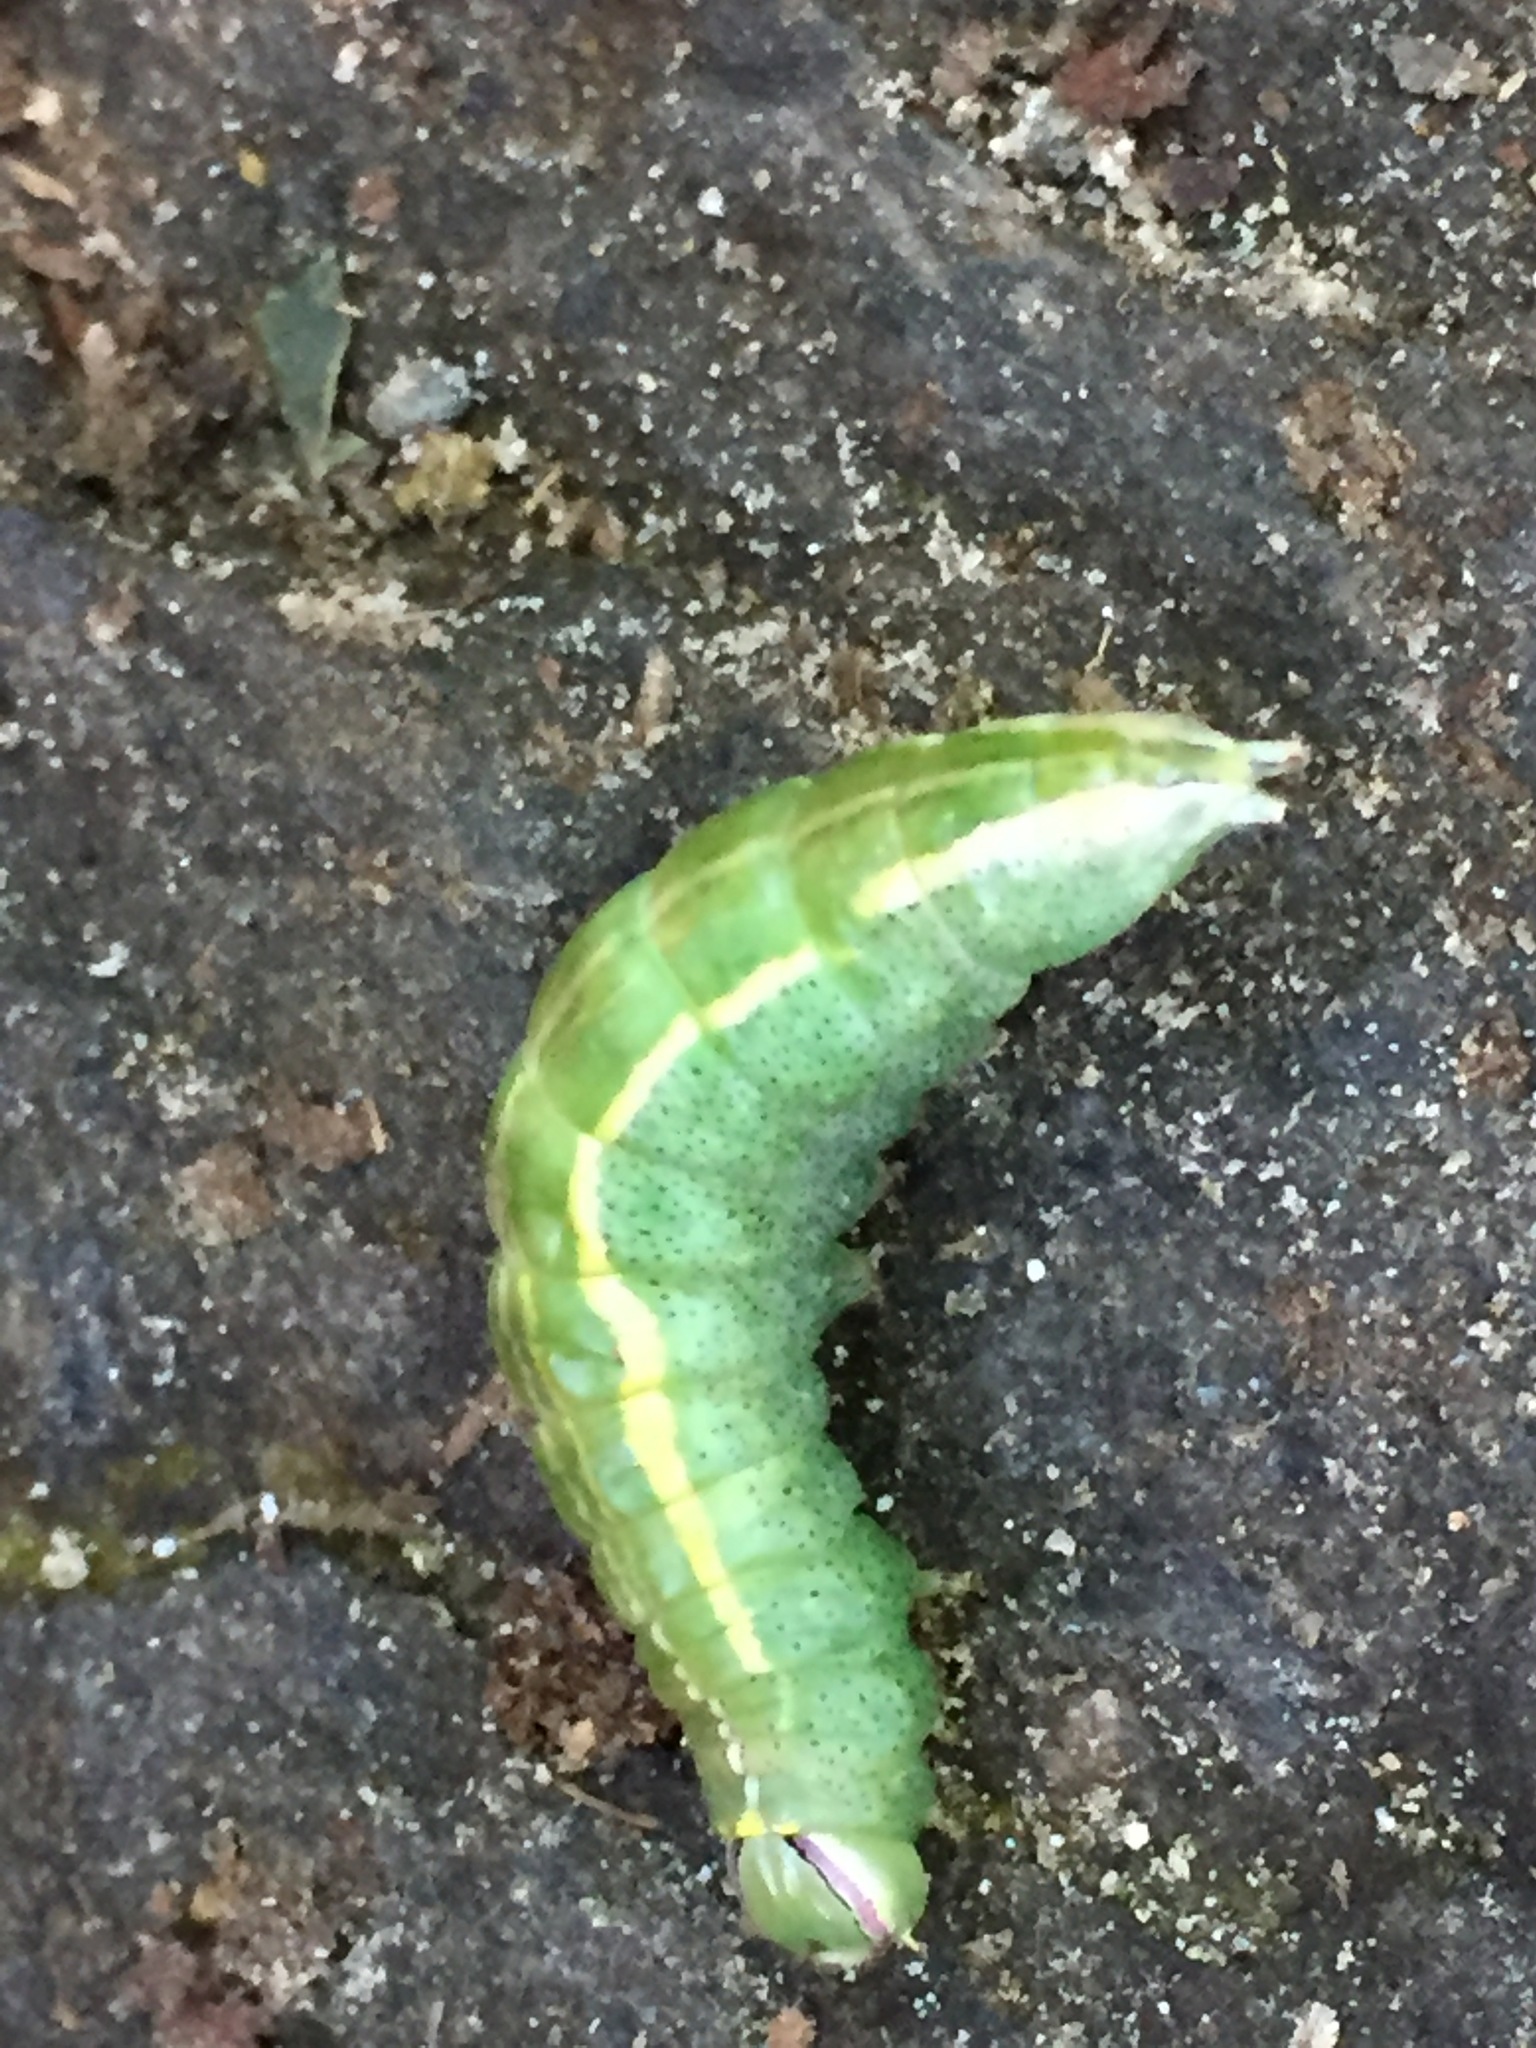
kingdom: Animalia
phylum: Arthropoda
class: Insecta
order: Lepidoptera
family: Notodontidae
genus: Disphragis
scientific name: Disphragis Cecrita guttivitta
